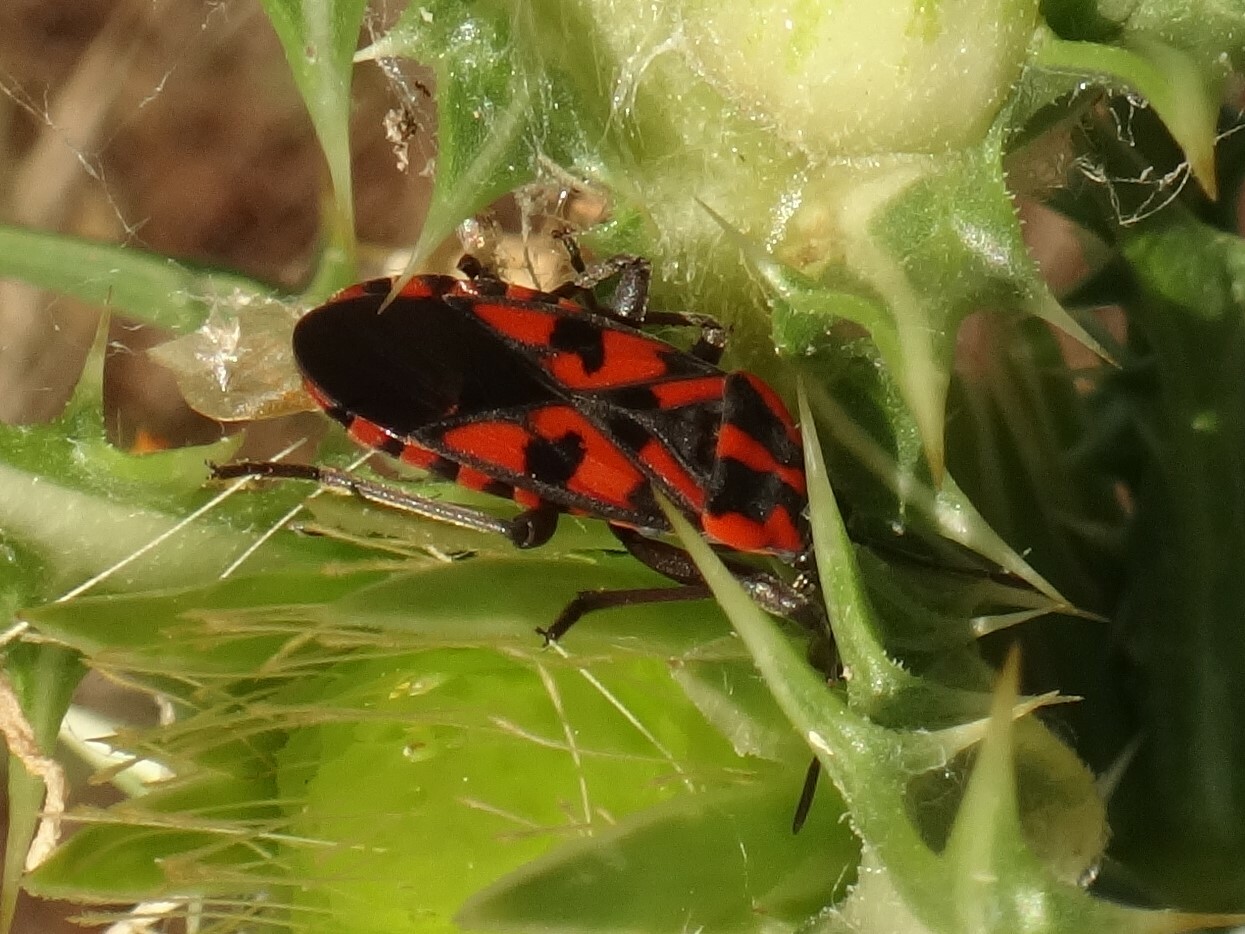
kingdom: Animalia
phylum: Arthropoda
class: Insecta
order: Hemiptera
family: Lygaeidae
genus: Spilostethus
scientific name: Spilostethus saxatilis
